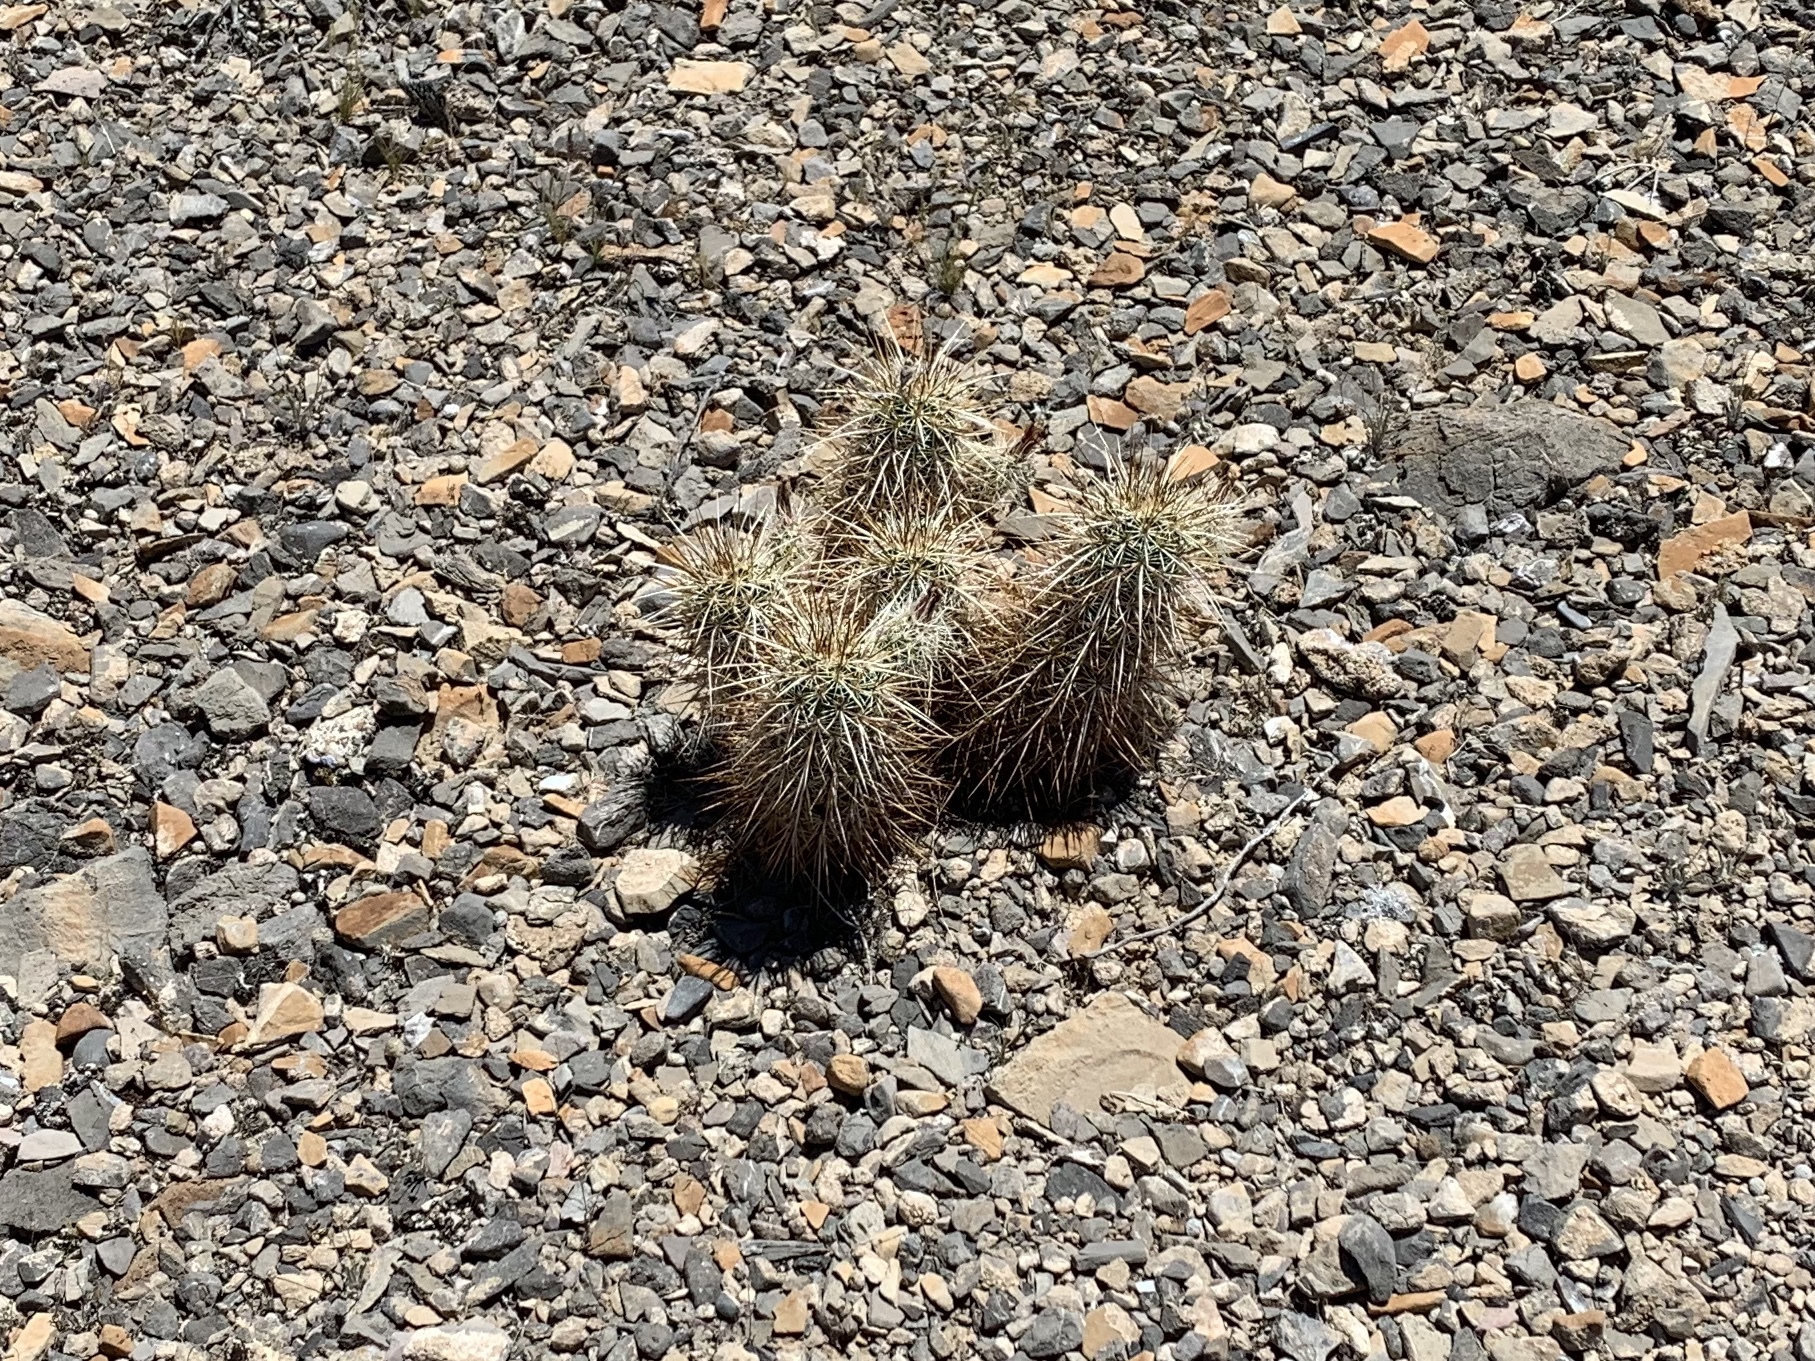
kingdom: Plantae
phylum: Tracheophyta
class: Magnoliopsida
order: Caryophyllales
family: Cactaceae
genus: Echinocereus
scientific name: Echinocereus engelmannii
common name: Engelmann's hedgehog cactus
